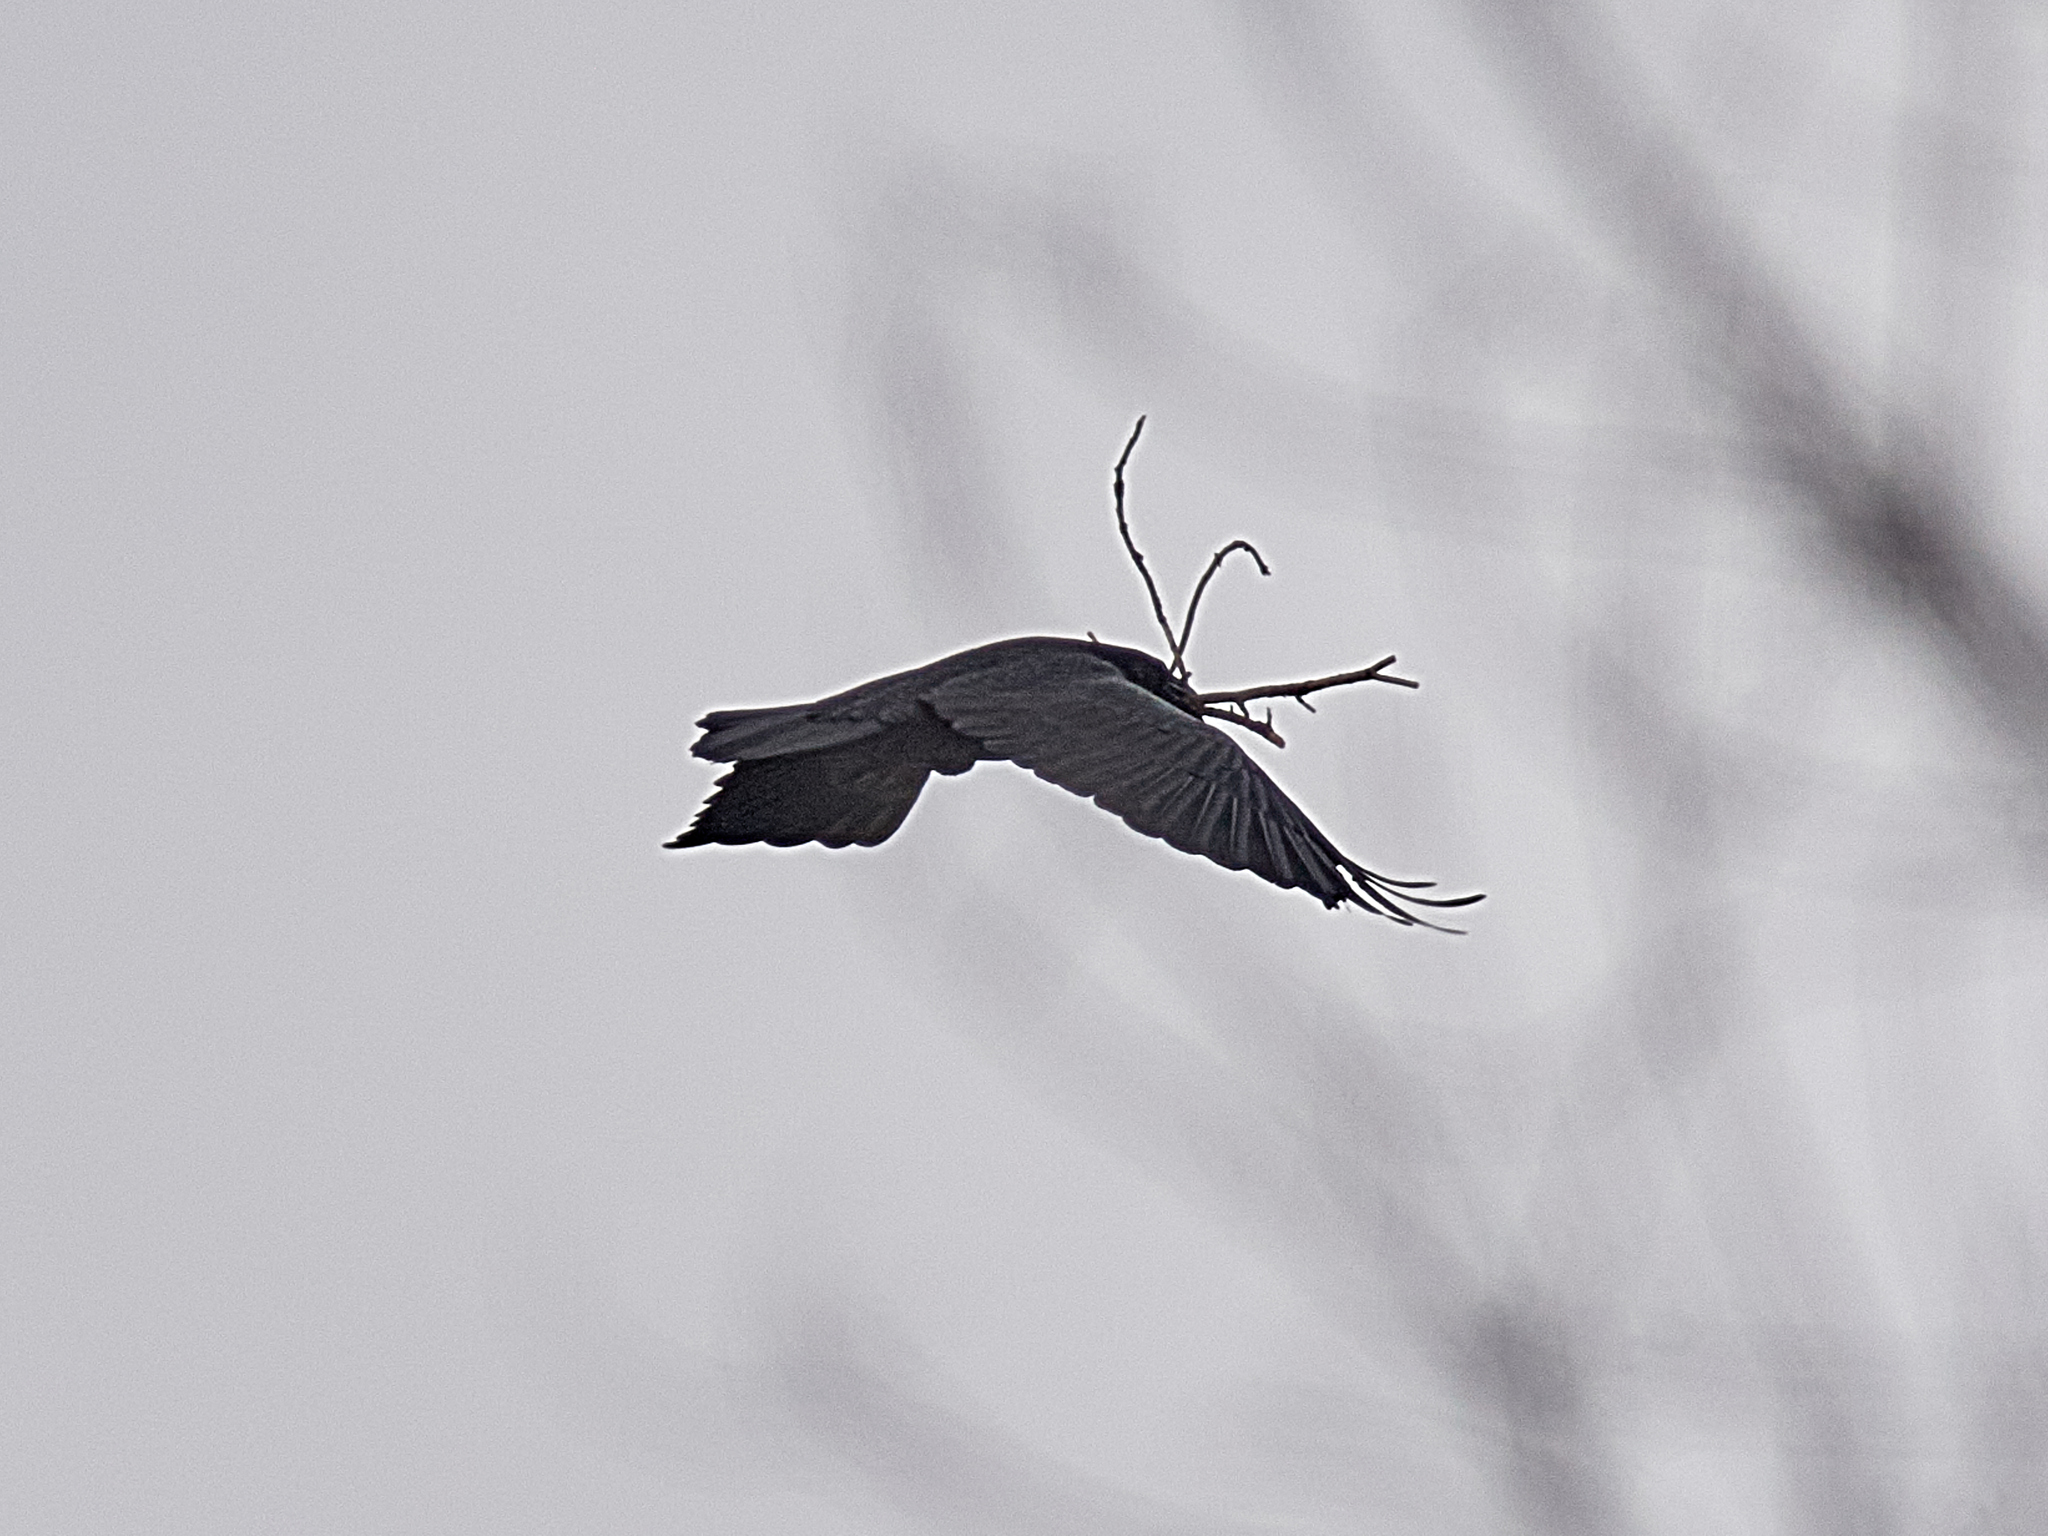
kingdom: Animalia
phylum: Chordata
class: Aves
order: Passeriformes
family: Corvidae
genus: Corvus
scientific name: Corvus corax
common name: Common raven
